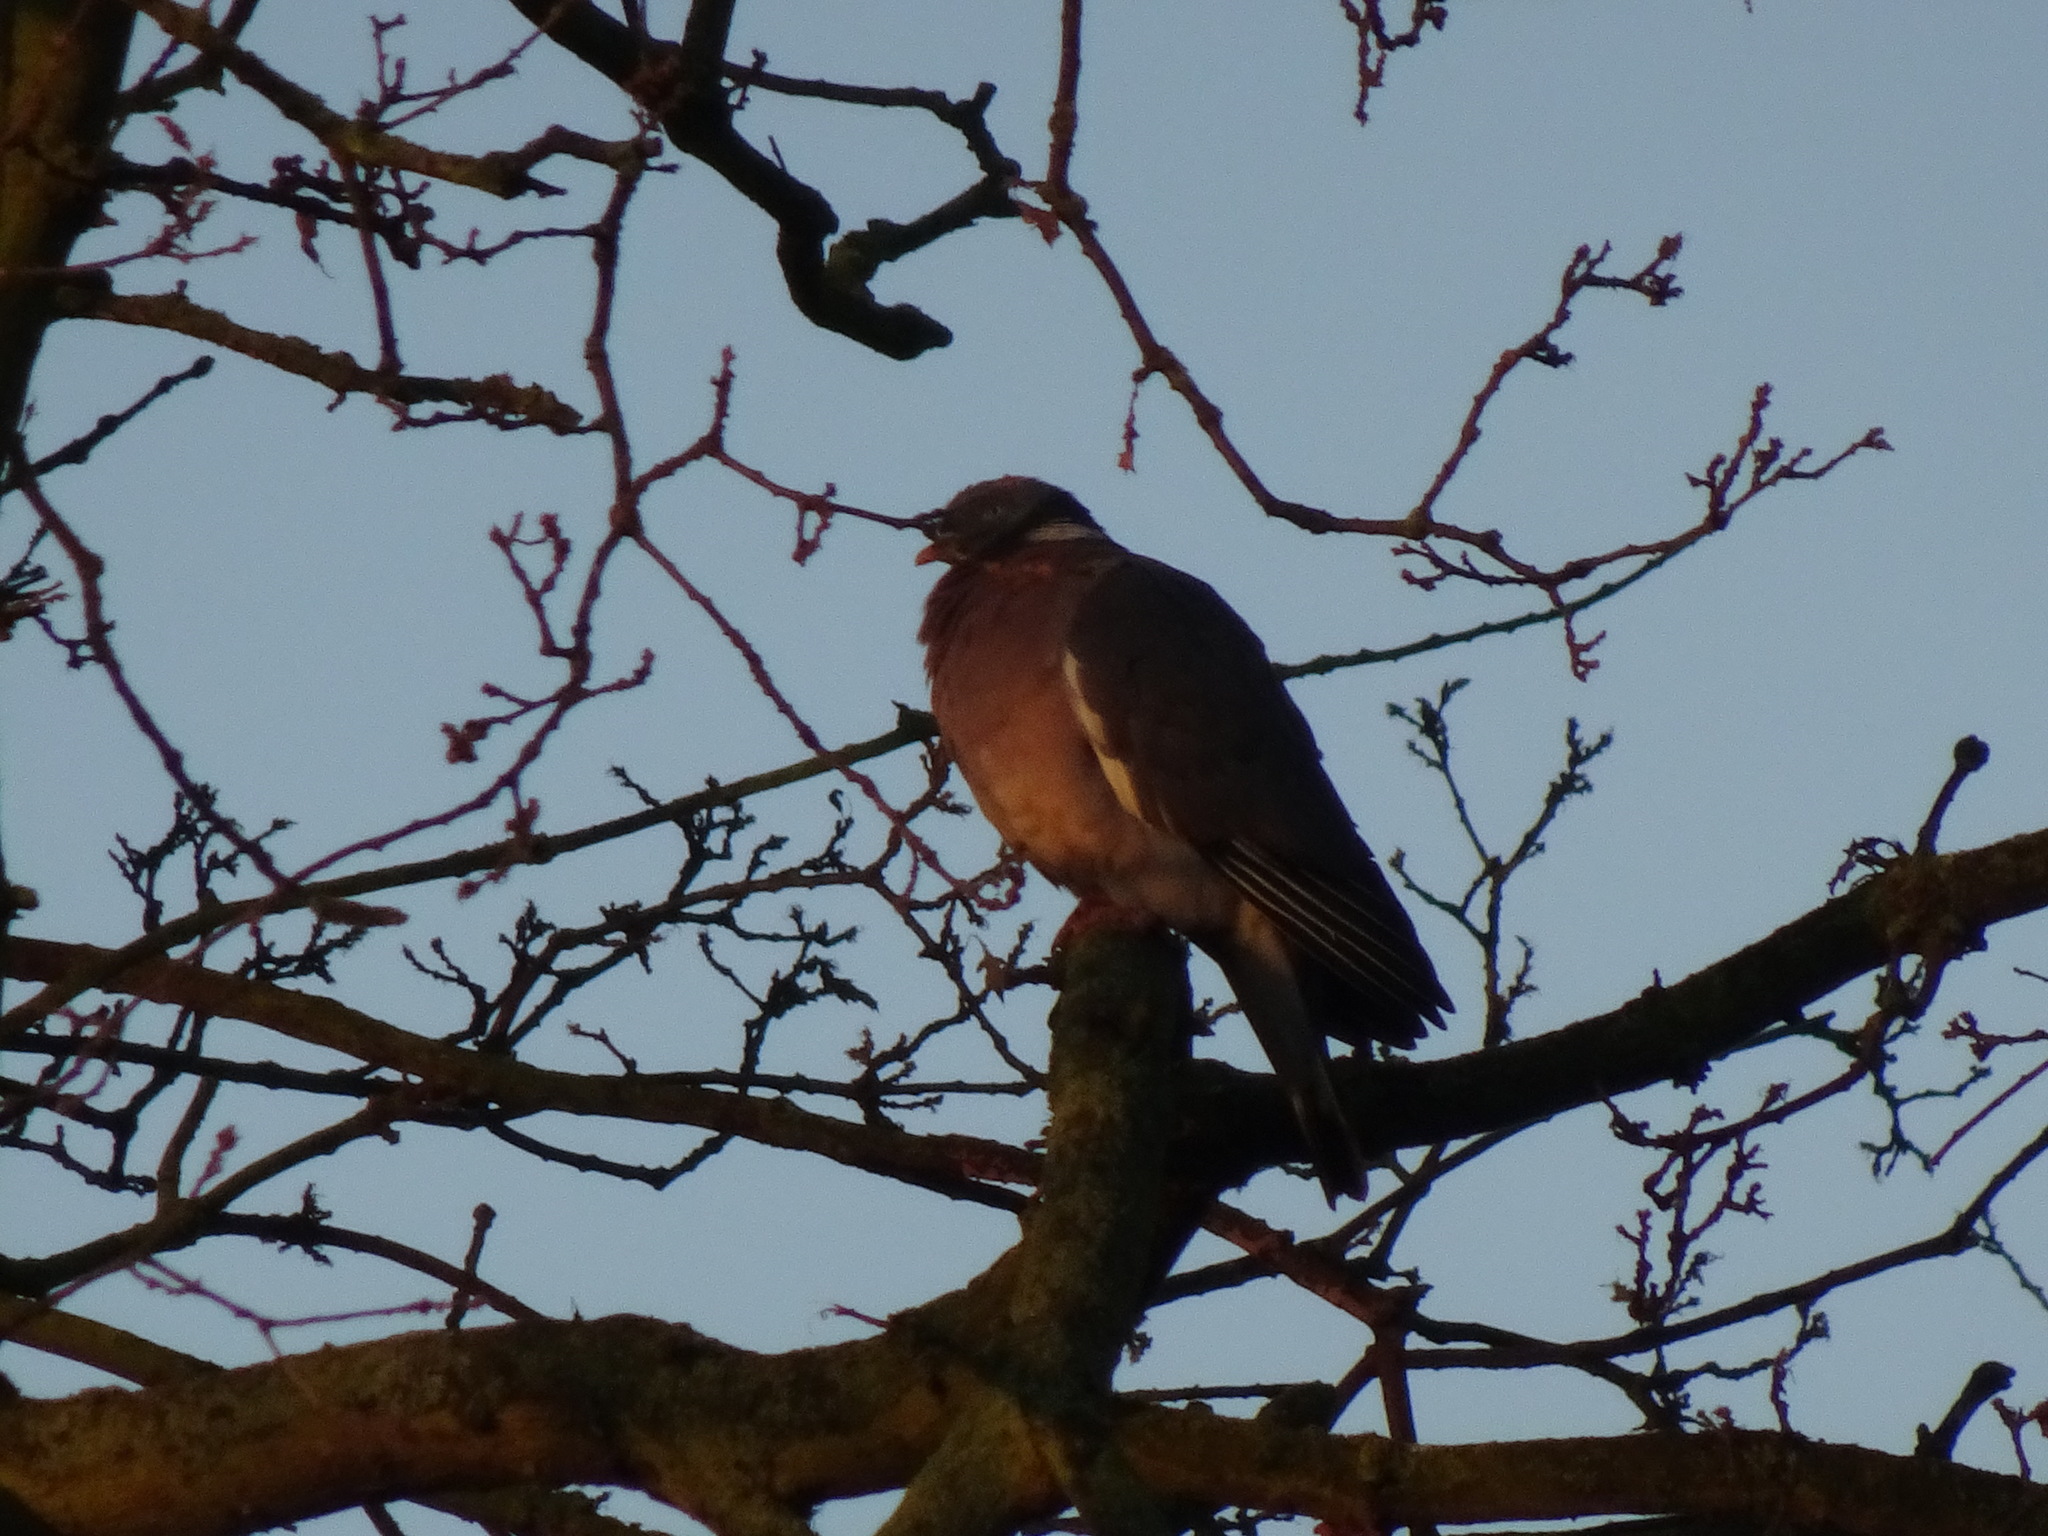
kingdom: Animalia
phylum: Chordata
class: Aves
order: Columbiformes
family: Columbidae
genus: Columba
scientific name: Columba palumbus
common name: Common wood pigeon
